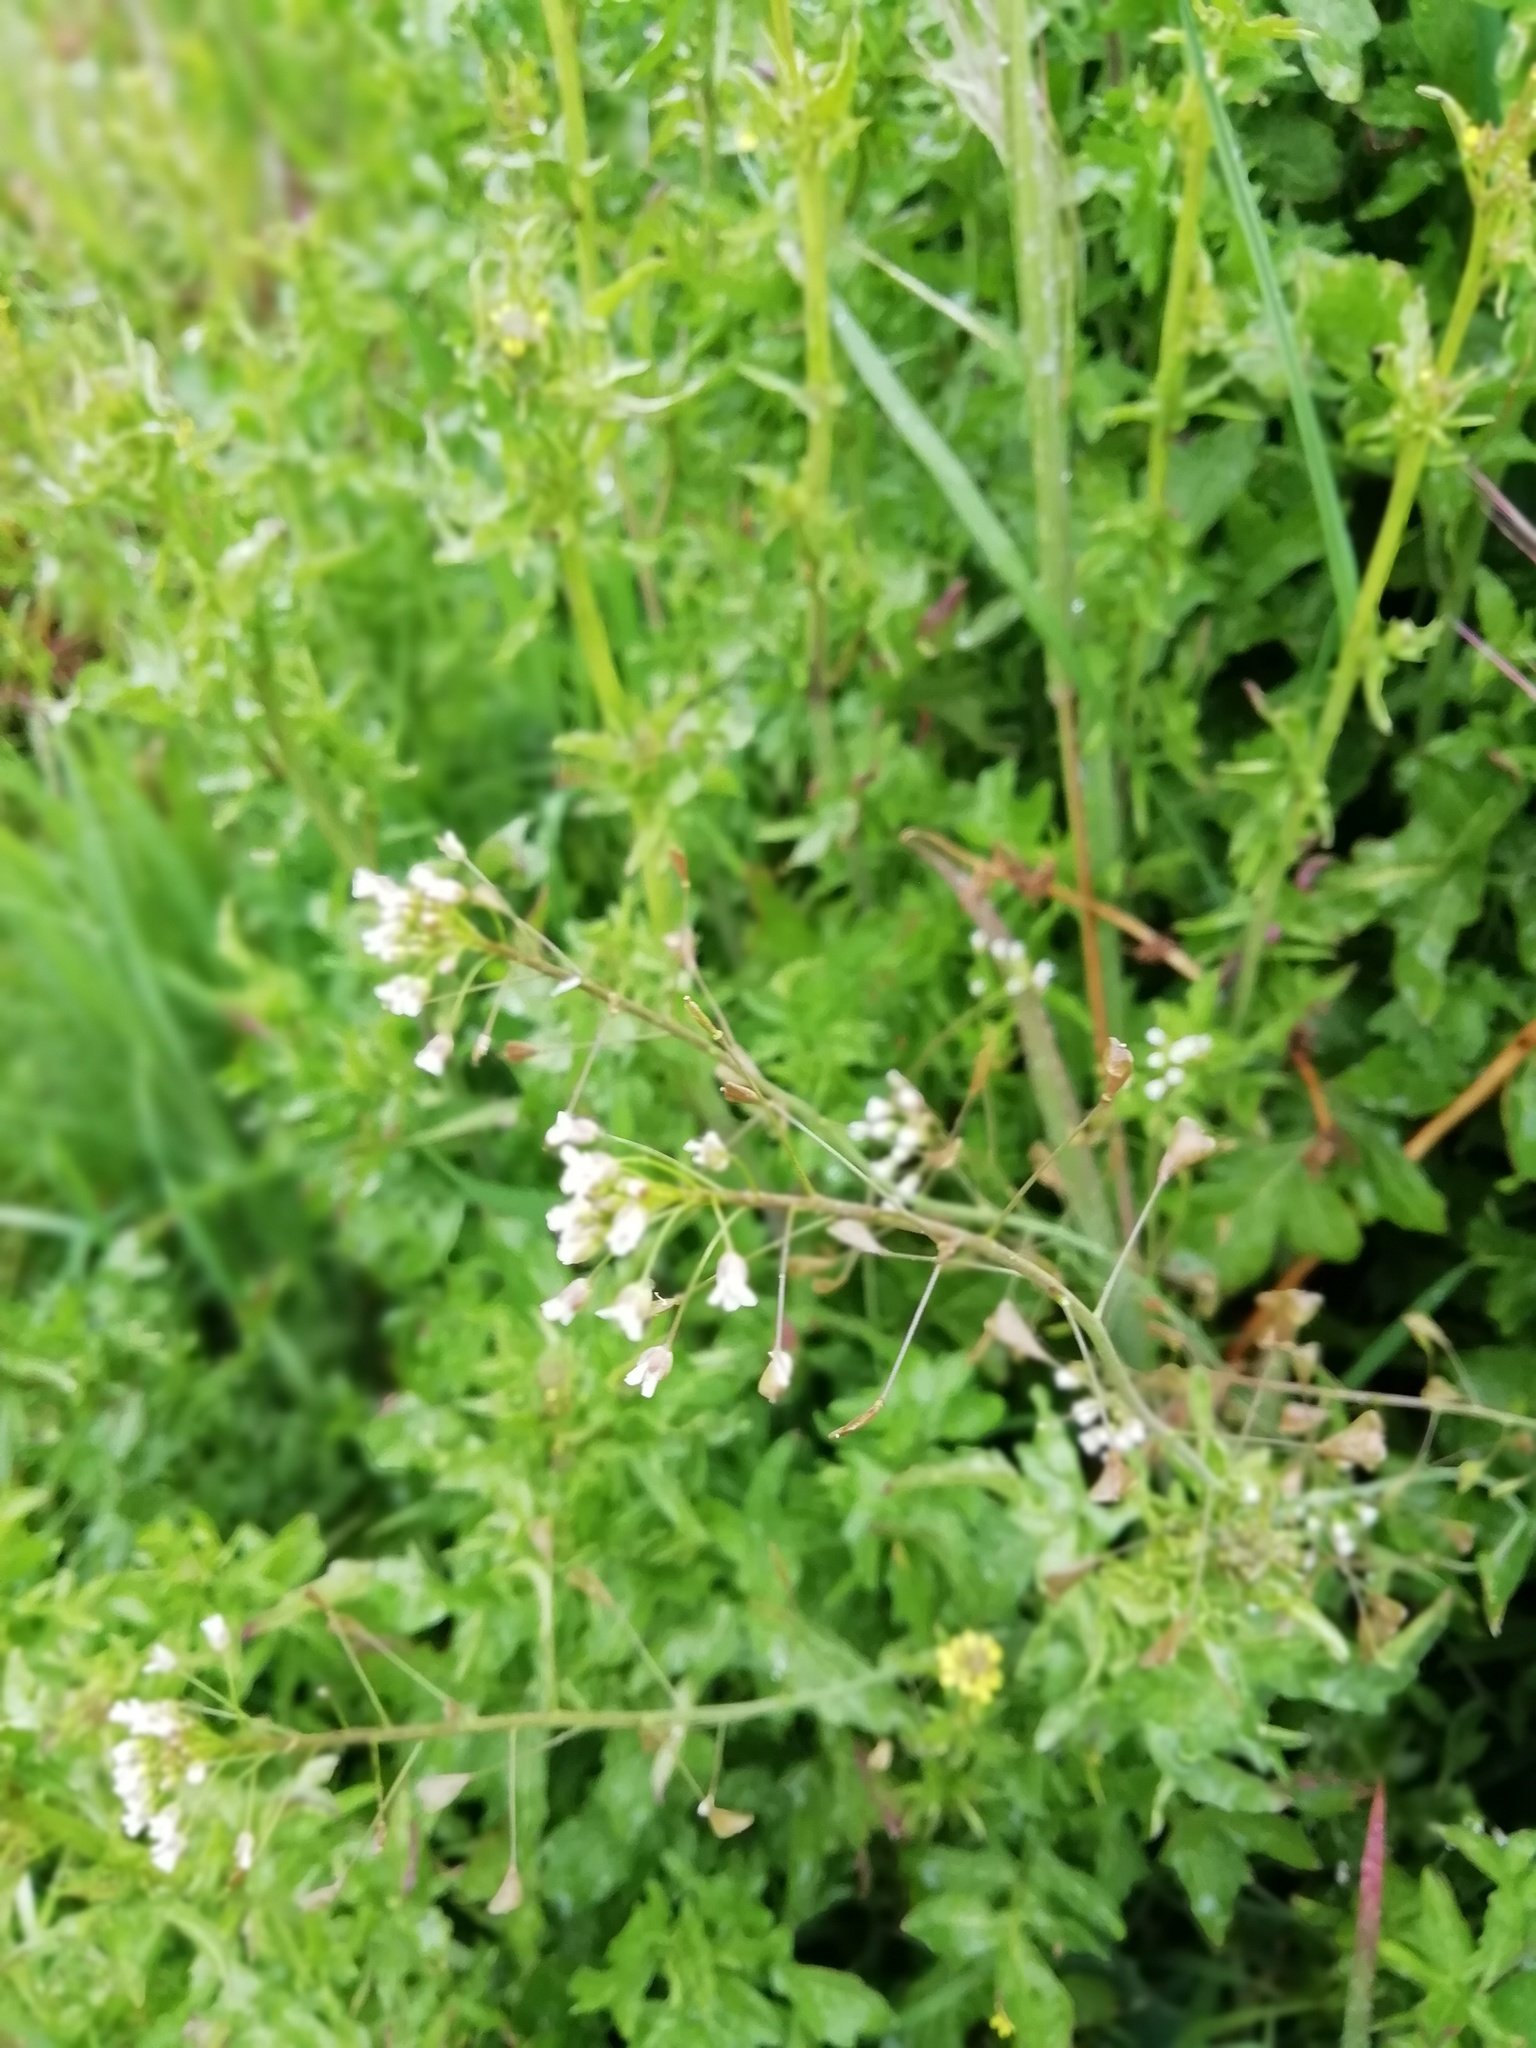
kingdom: Plantae
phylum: Tracheophyta
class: Magnoliopsida
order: Brassicales
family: Brassicaceae
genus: Capsella
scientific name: Capsella bursa-pastoris
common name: Shepherd's purse
